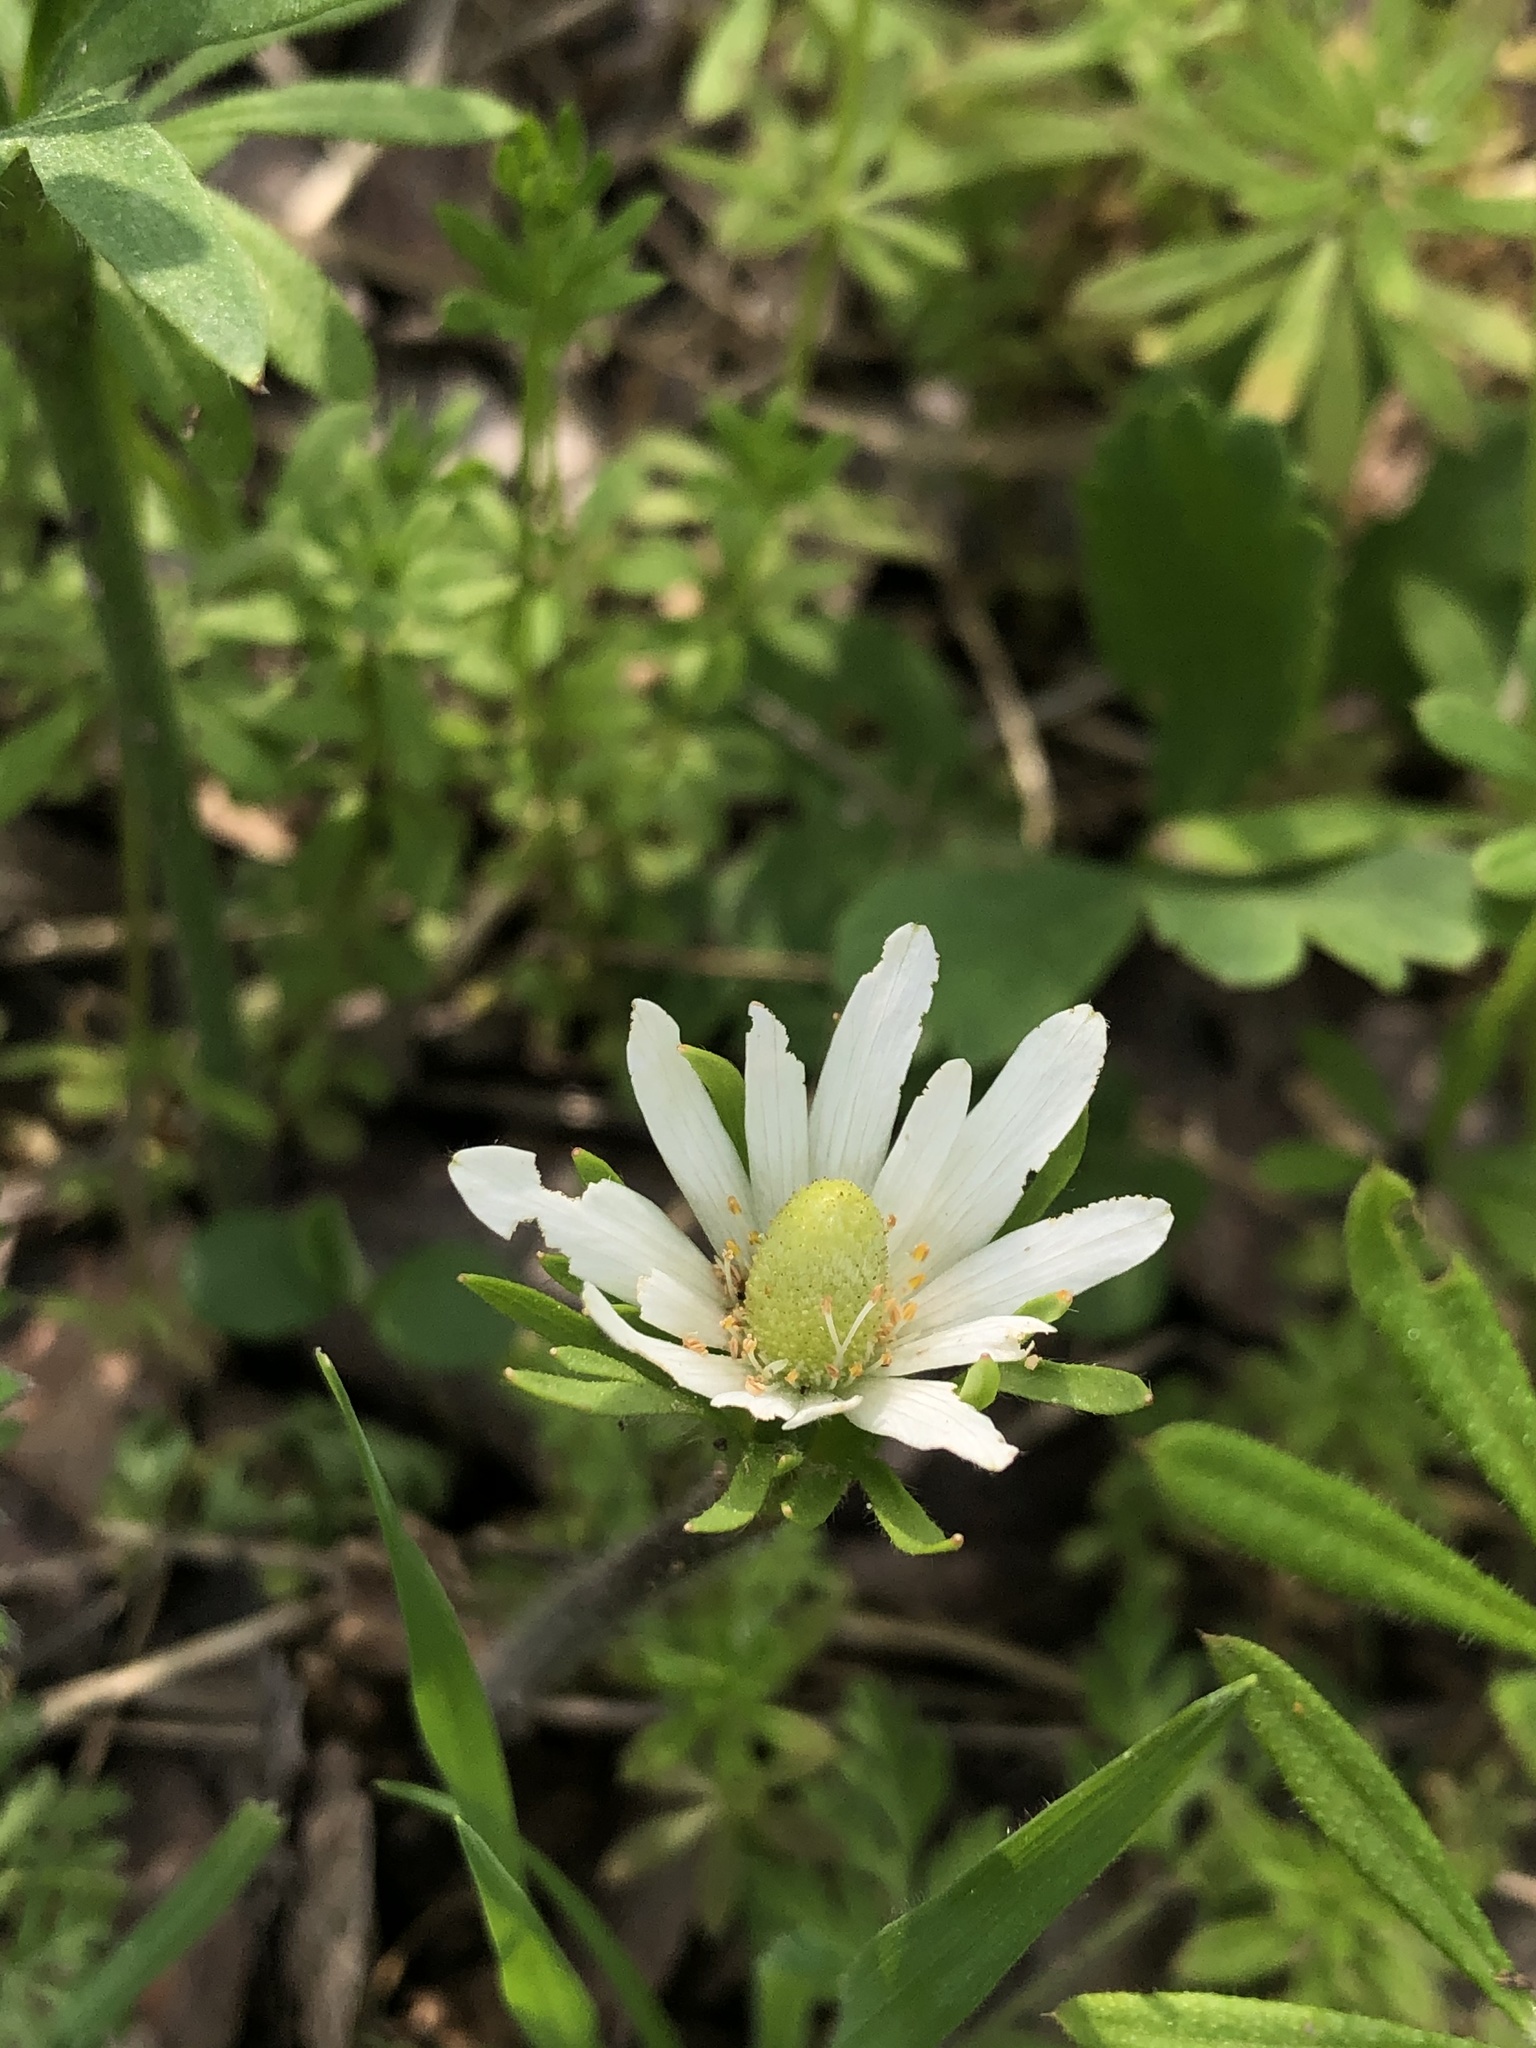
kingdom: Plantae
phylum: Tracheophyta
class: Magnoliopsida
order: Ranunculales
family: Ranunculaceae
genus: Anemone
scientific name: Anemone berlandieri
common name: Ten-petal anemone
